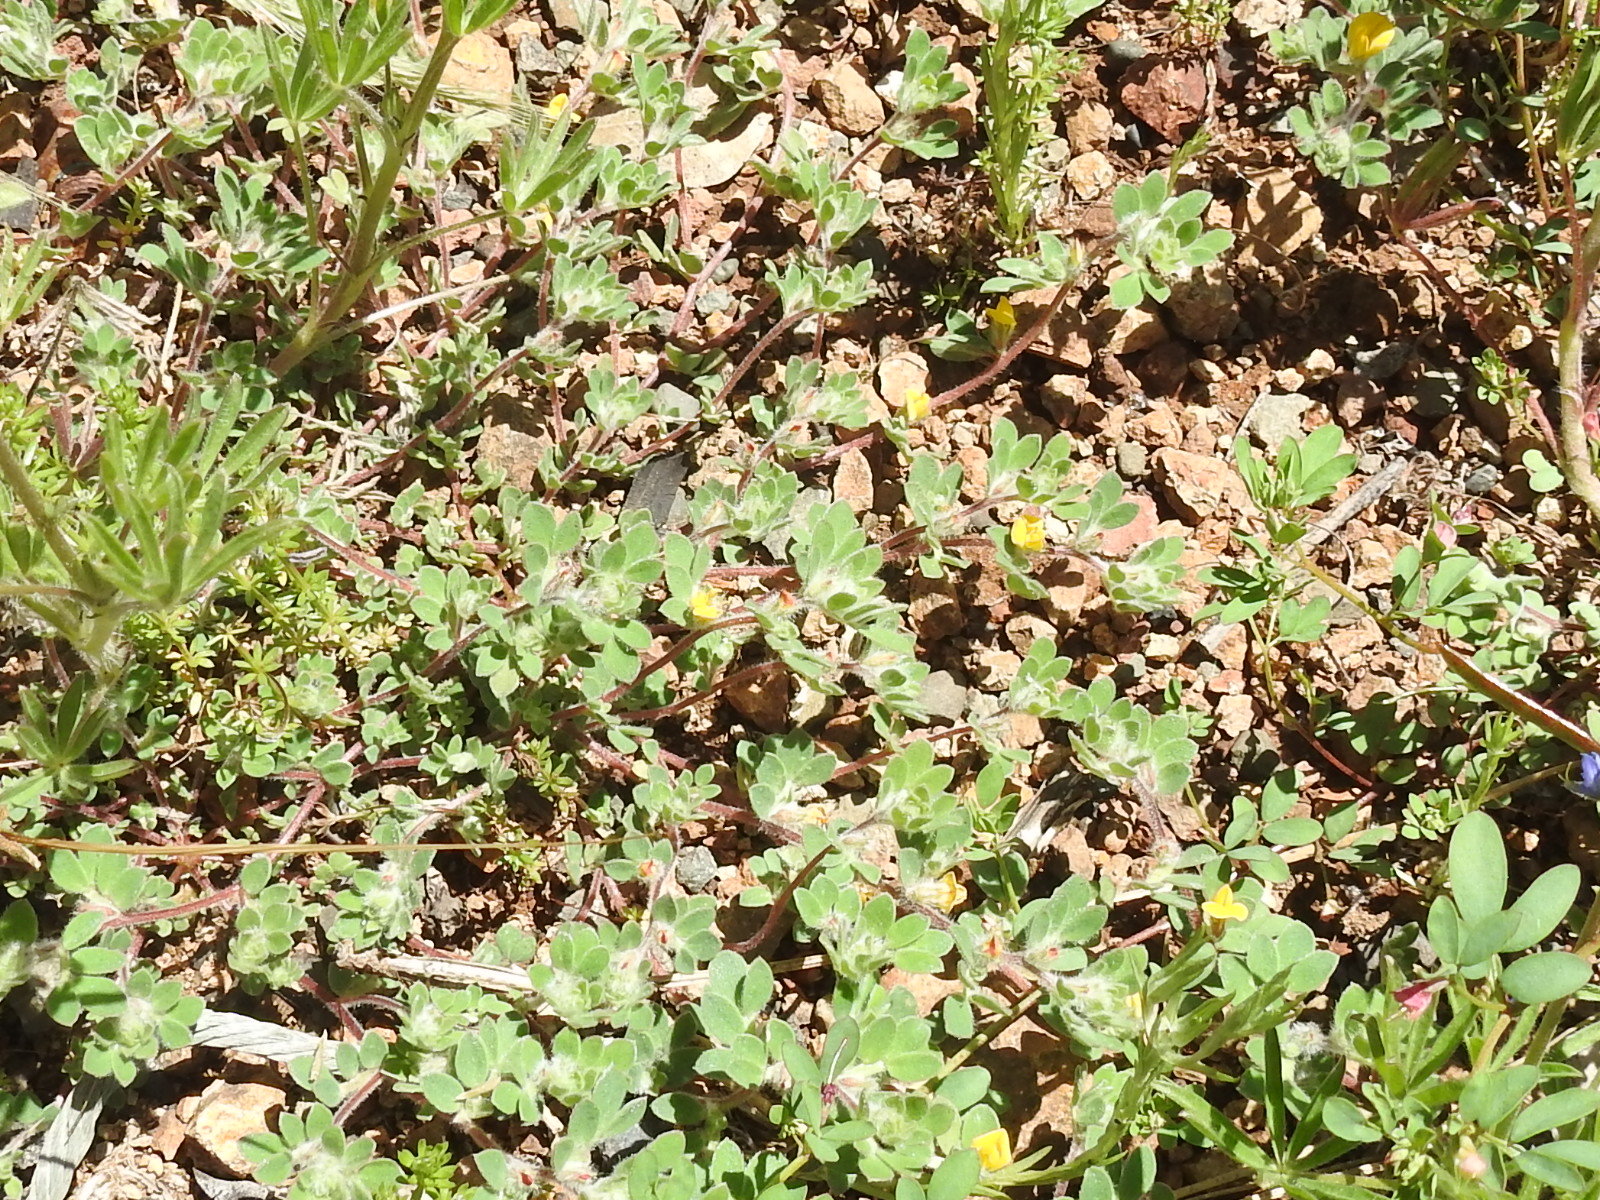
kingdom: Plantae
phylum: Tracheophyta
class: Magnoliopsida
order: Fabales
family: Fabaceae
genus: Acmispon
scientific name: Acmispon brachycarpus
